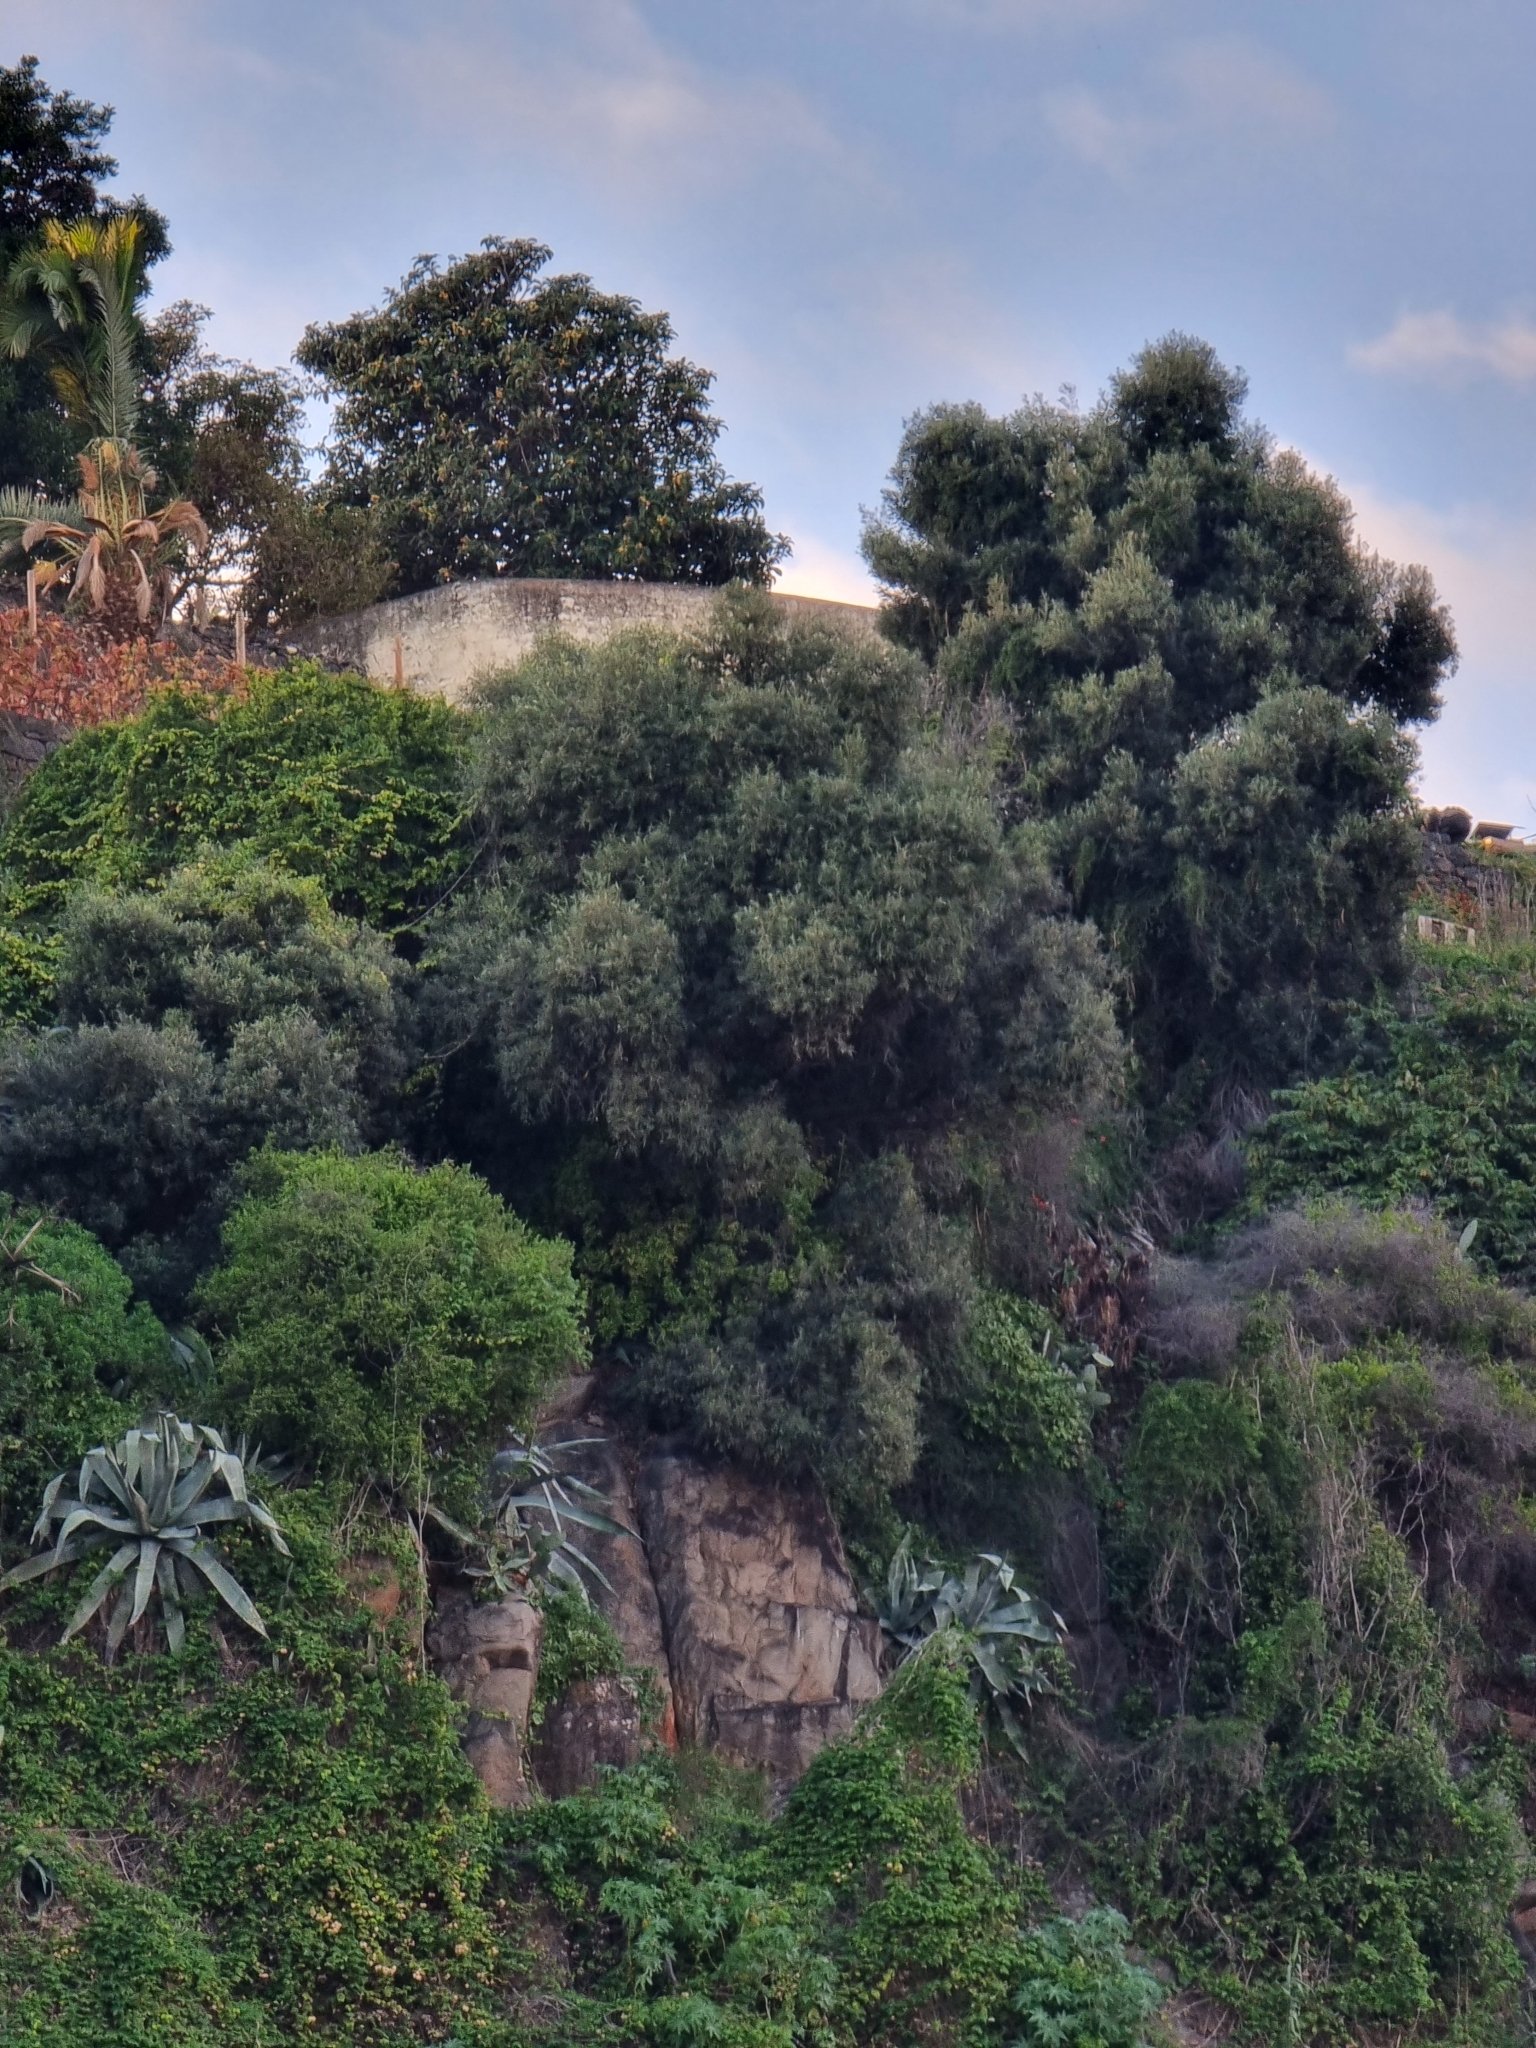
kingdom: Plantae
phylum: Tracheophyta
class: Magnoliopsida
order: Lamiales
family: Oleaceae
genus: Olea
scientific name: Olea europaea
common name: Olive
